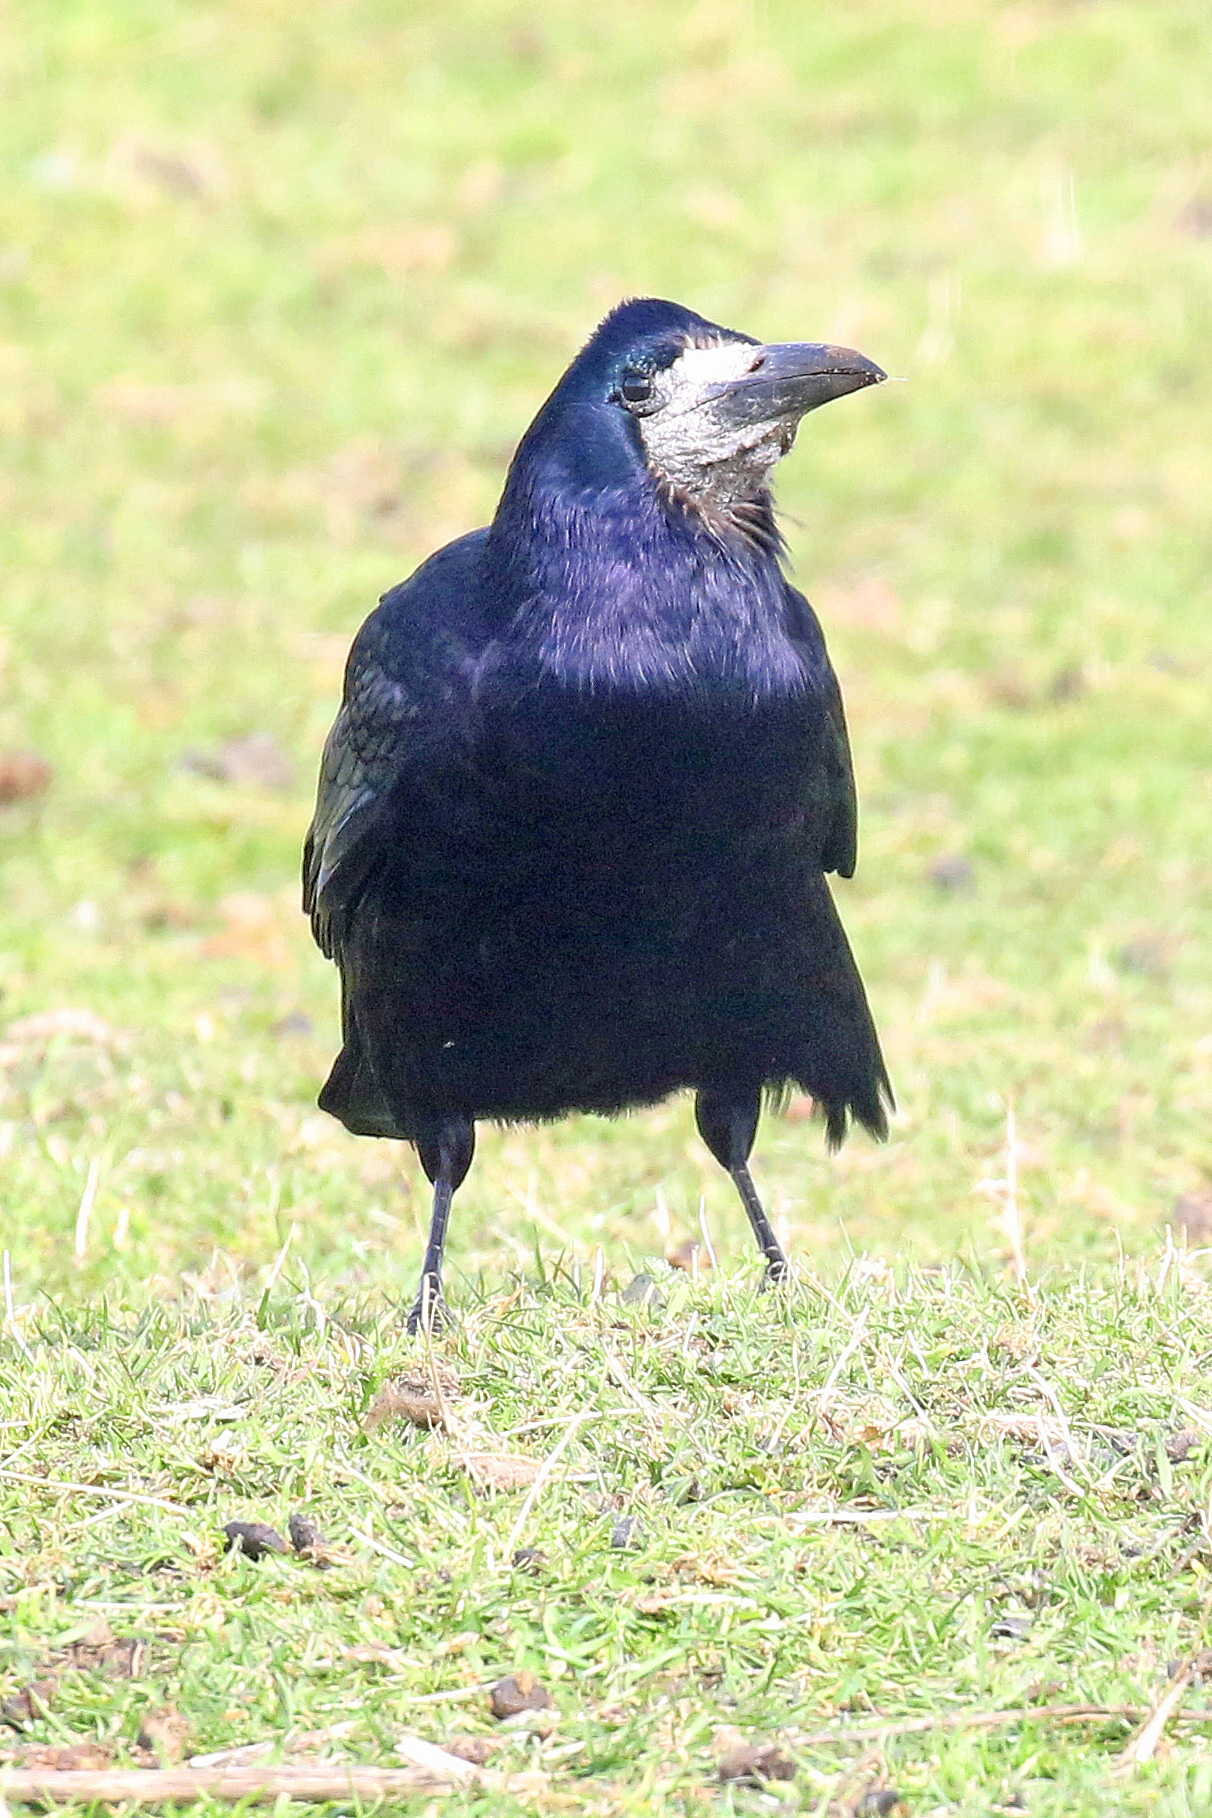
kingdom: Animalia
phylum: Chordata
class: Aves
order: Passeriformes
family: Corvidae
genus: Corvus
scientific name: Corvus frugilegus
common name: Rook
